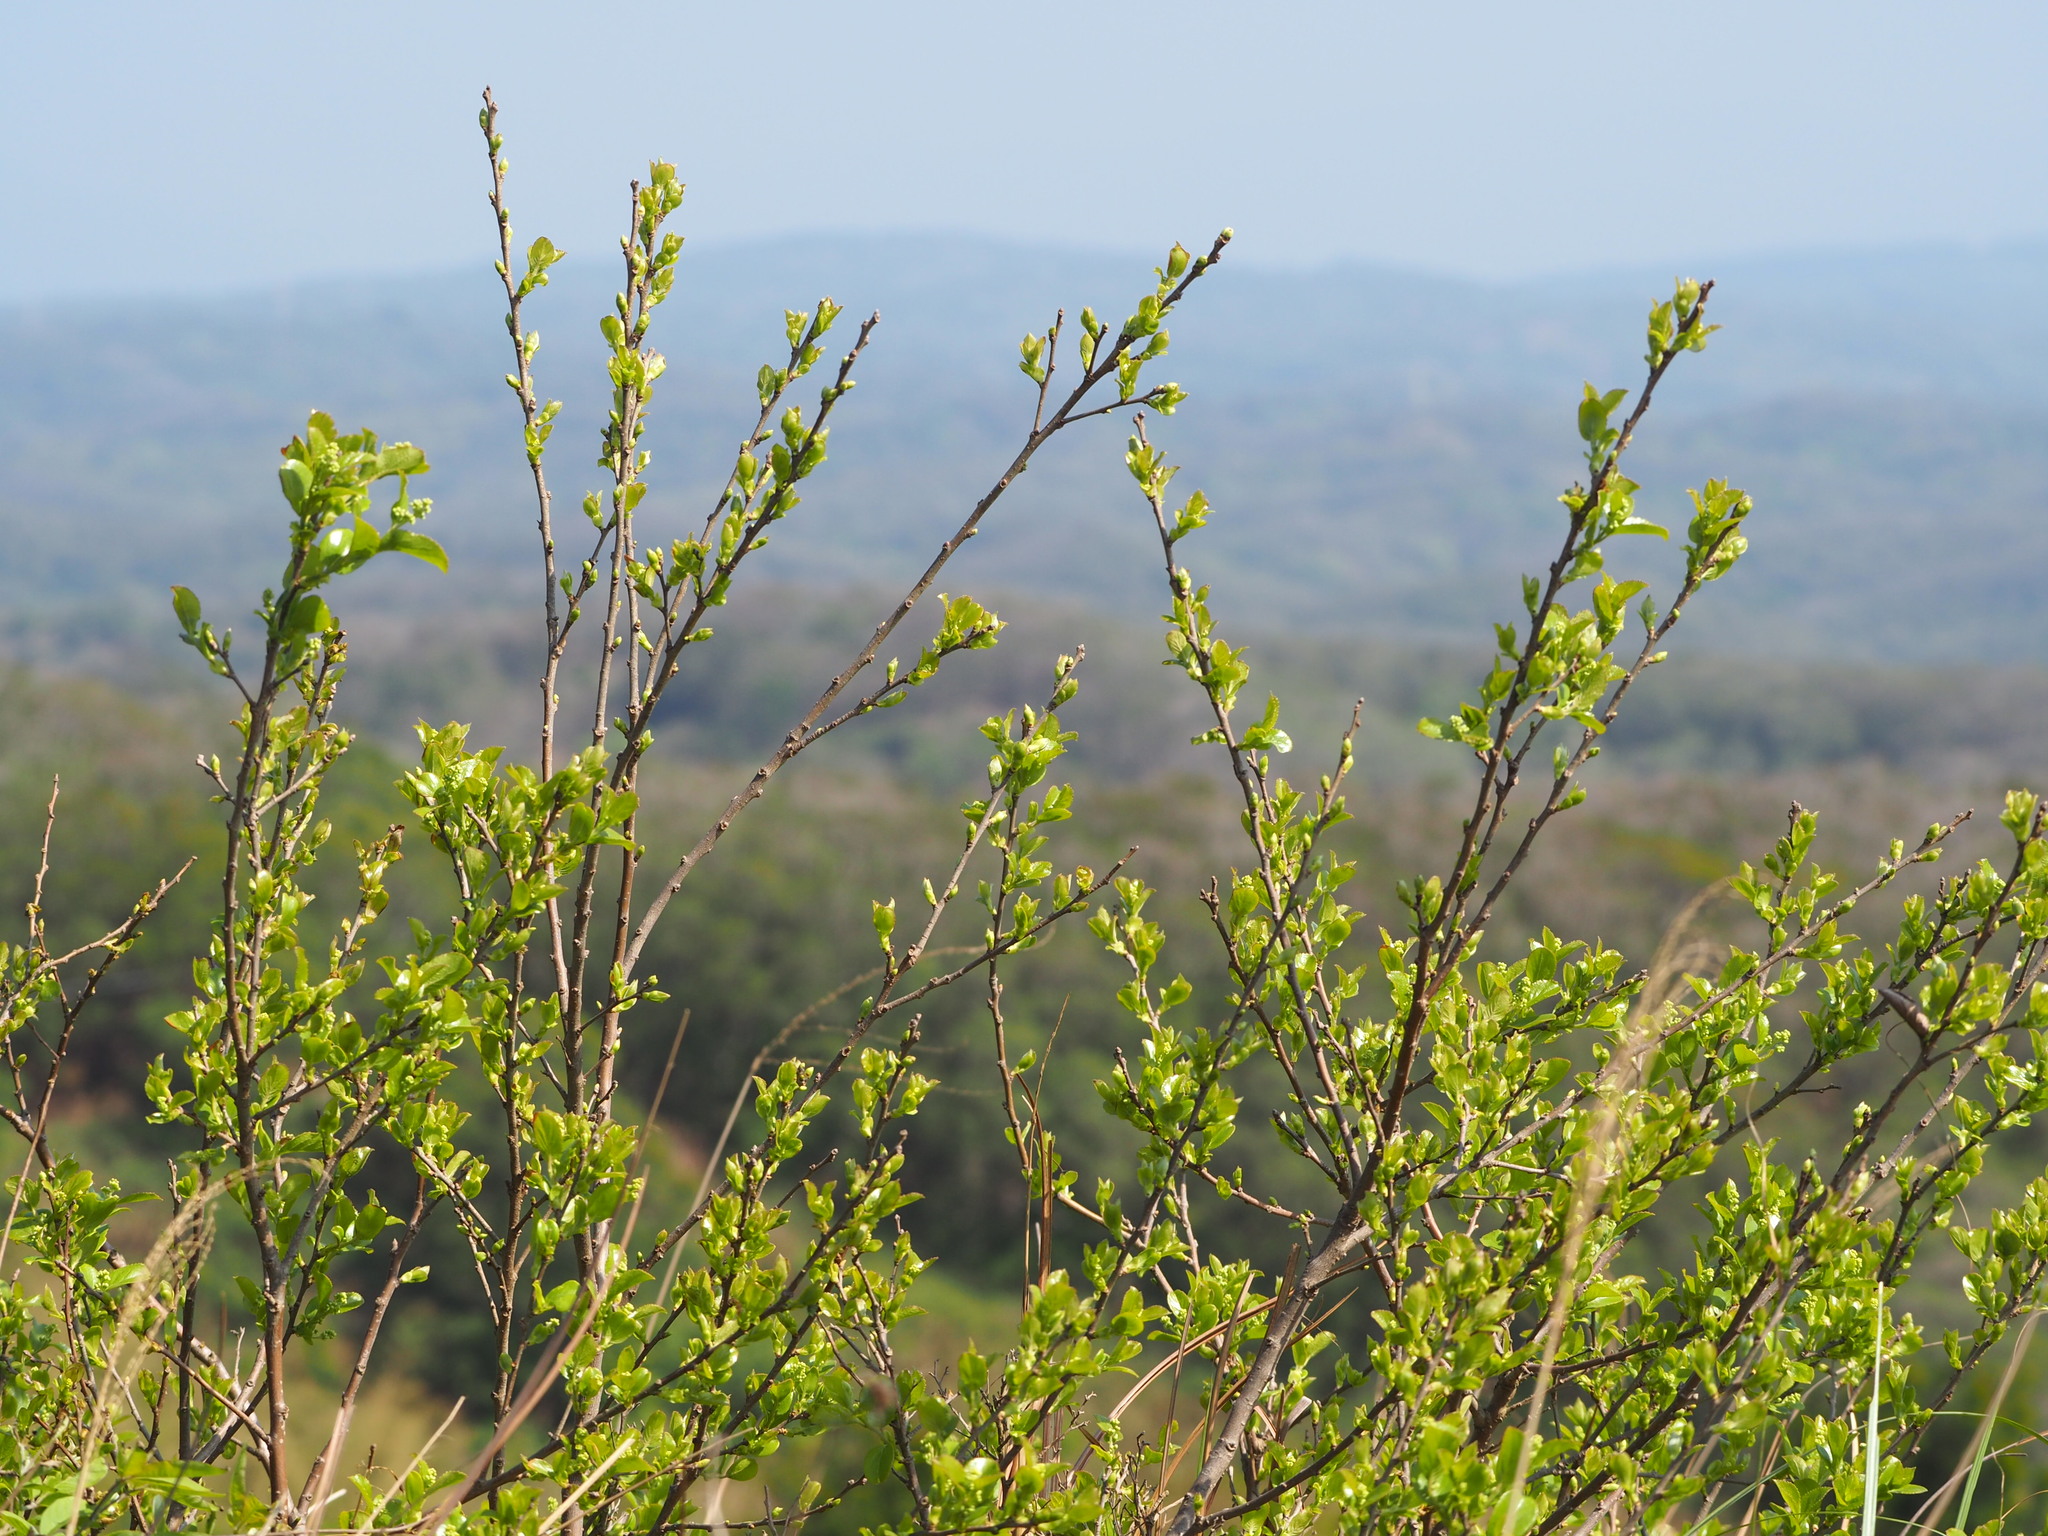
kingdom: Plantae
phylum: Tracheophyta
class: Magnoliopsida
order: Ericales
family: Symplocaceae
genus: Symplocos
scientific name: Symplocos paniculata
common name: Sapphire-berry
